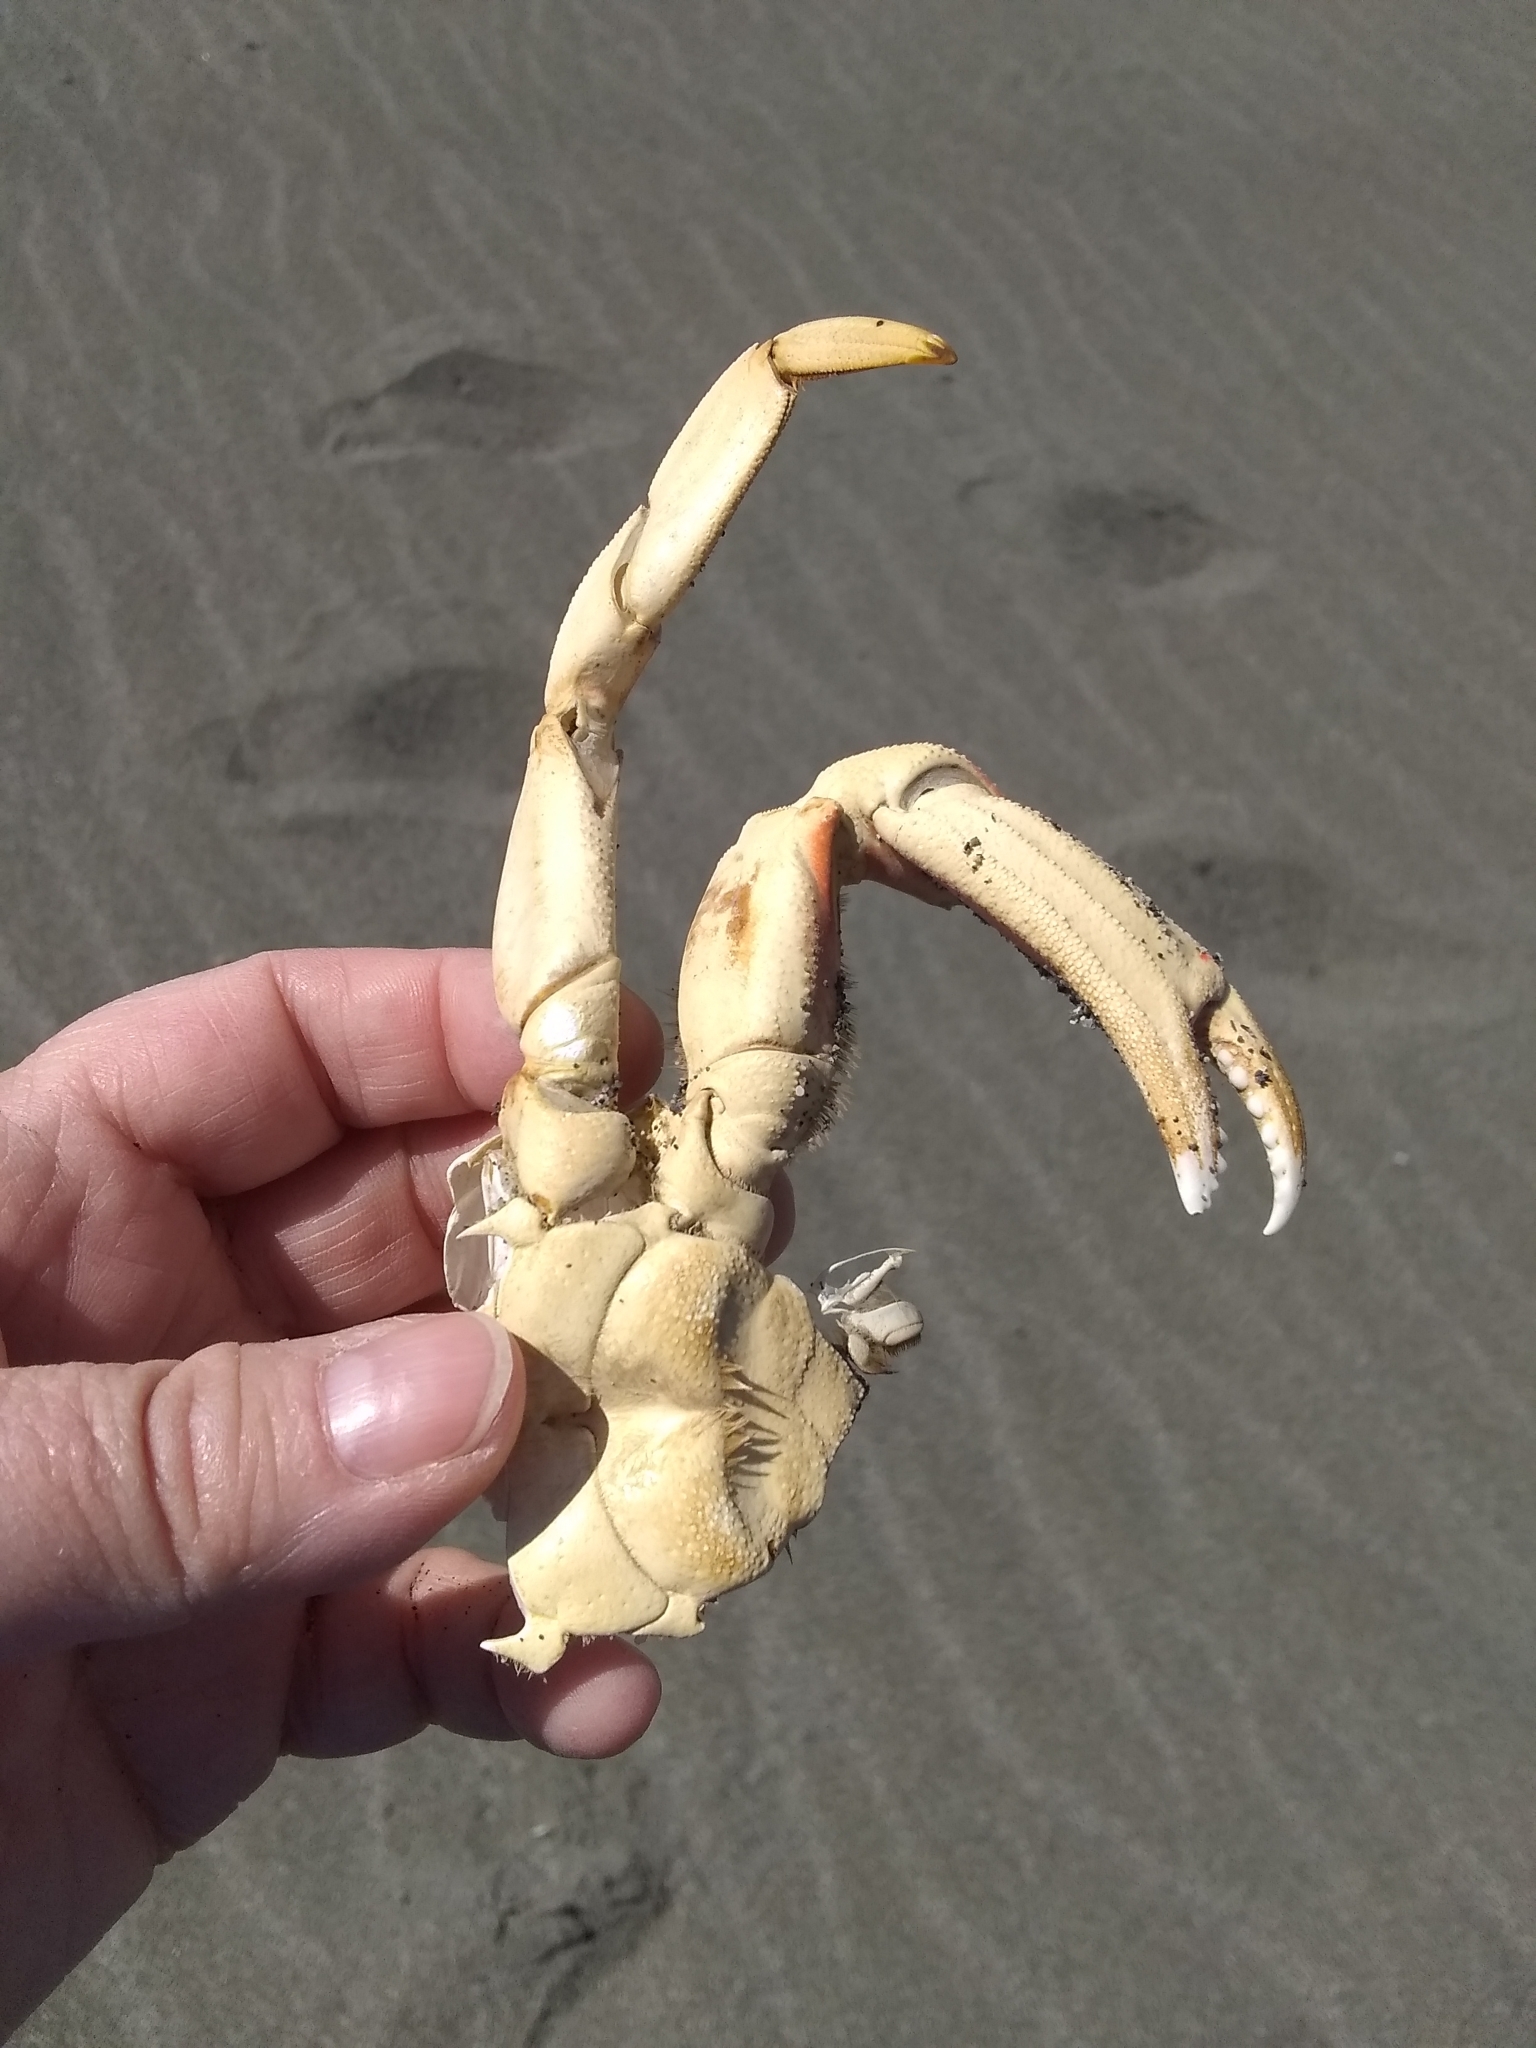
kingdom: Animalia
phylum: Arthropoda
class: Malacostraca
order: Decapoda
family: Cancridae
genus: Metacarcinus
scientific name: Metacarcinus magister
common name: Californian crab
